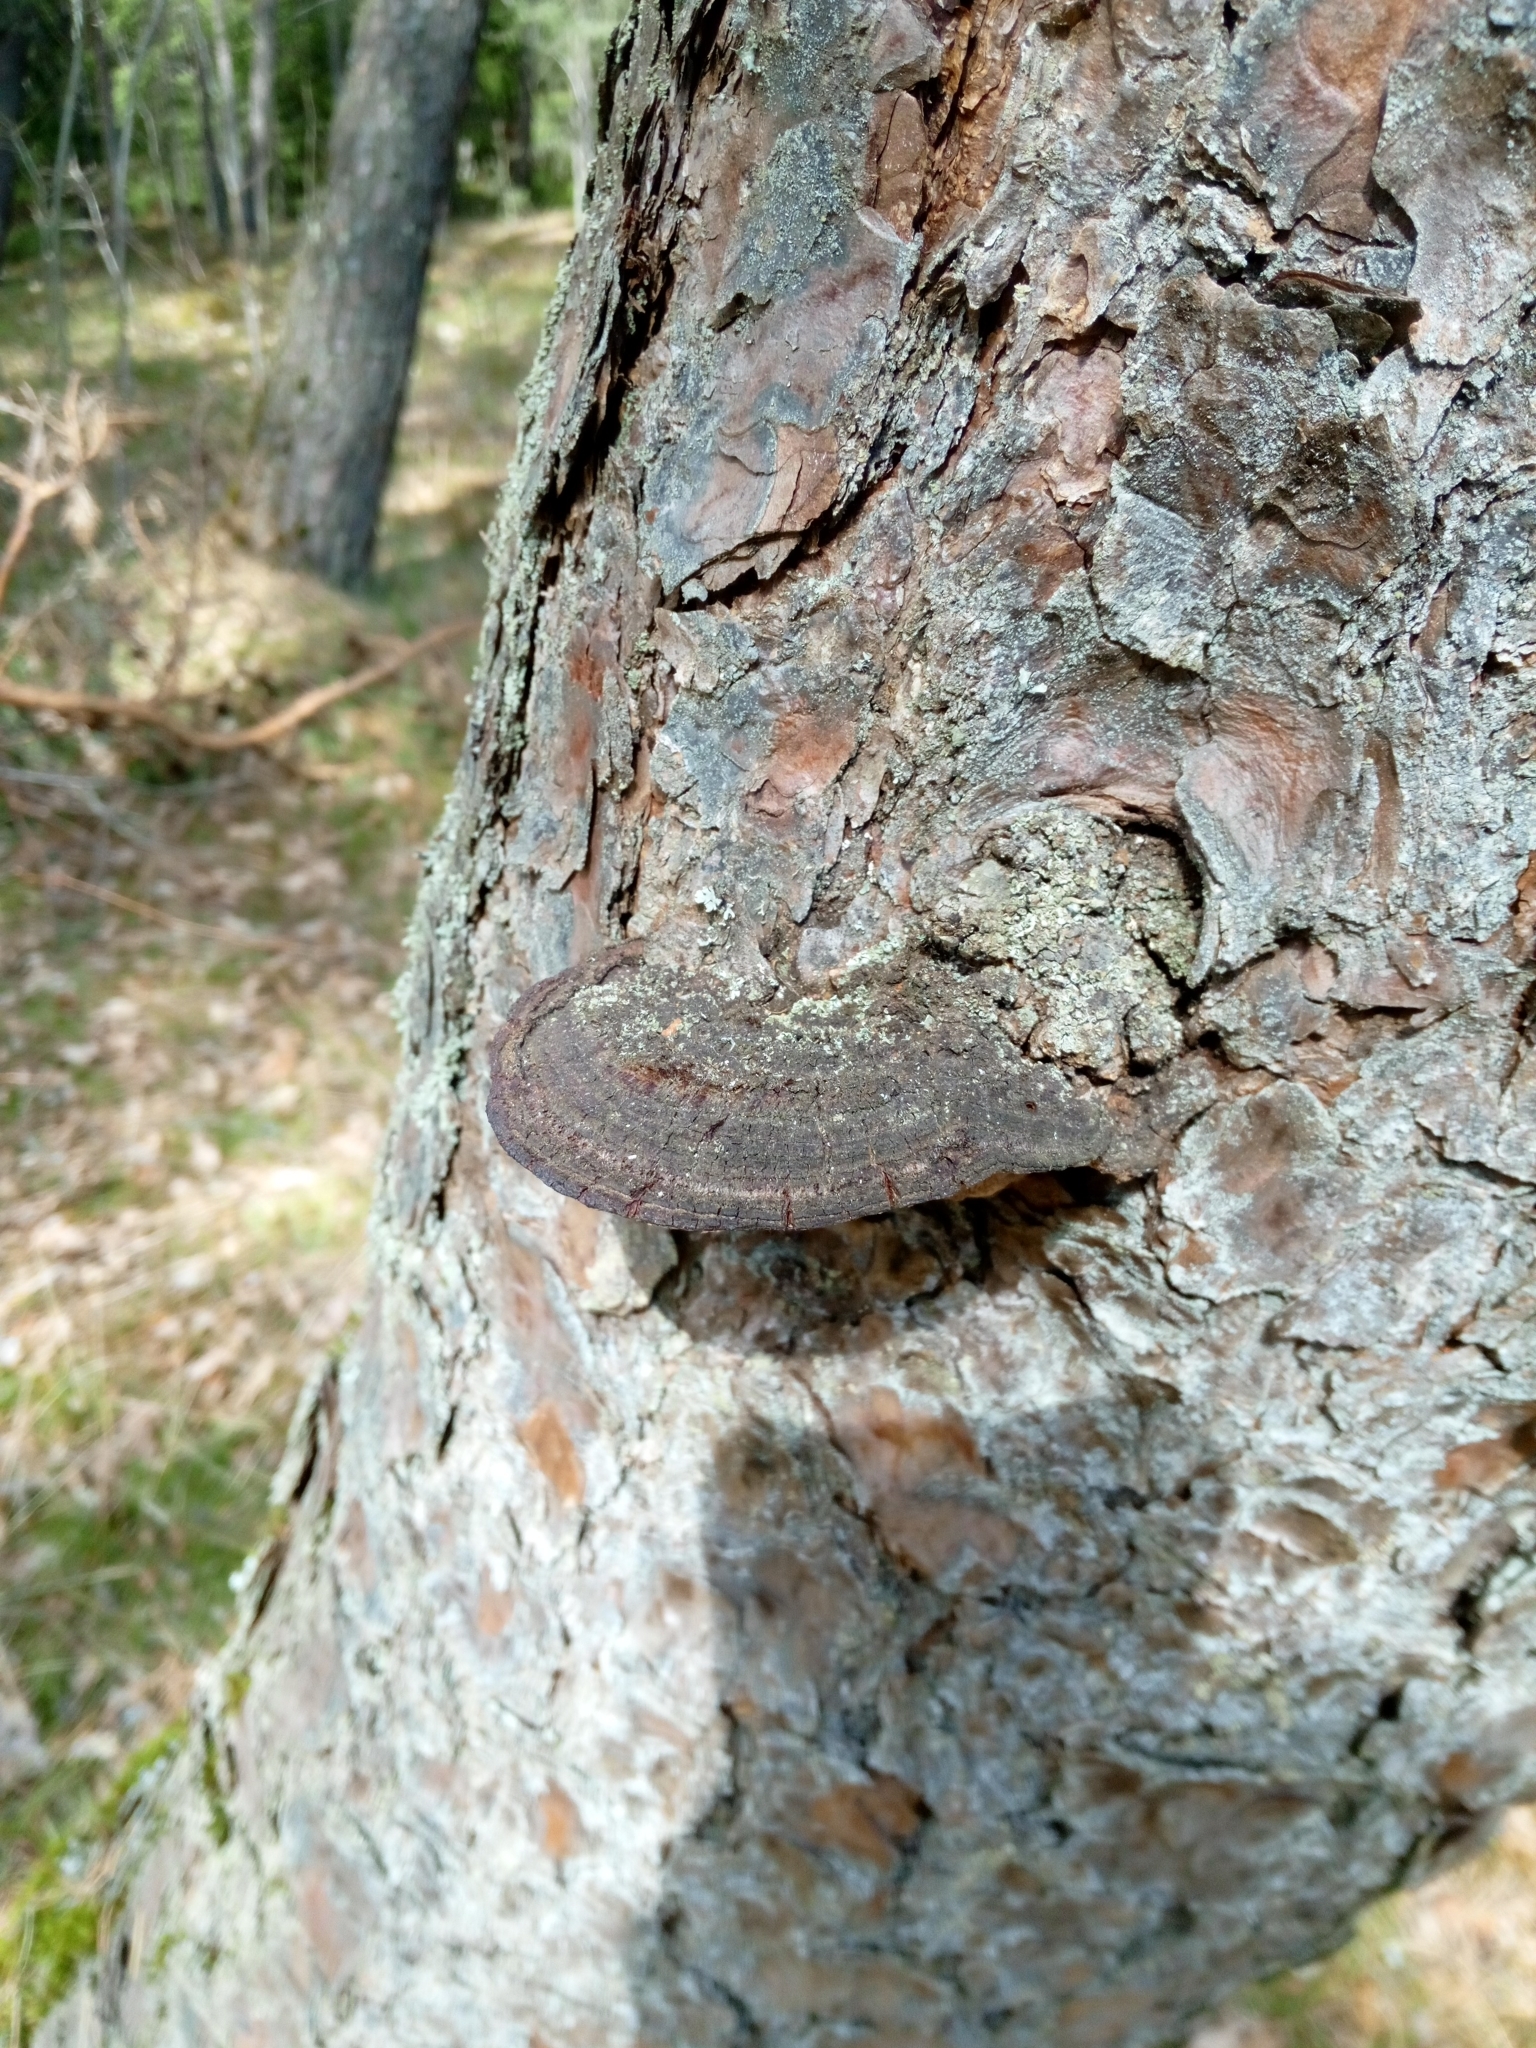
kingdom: Fungi
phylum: Basidiomycota
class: Agaricomycetes
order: Hymenochaetales
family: Hymenochaetaceae
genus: Porodaedalea
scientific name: Porodaedalea pini
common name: Pine bracket
